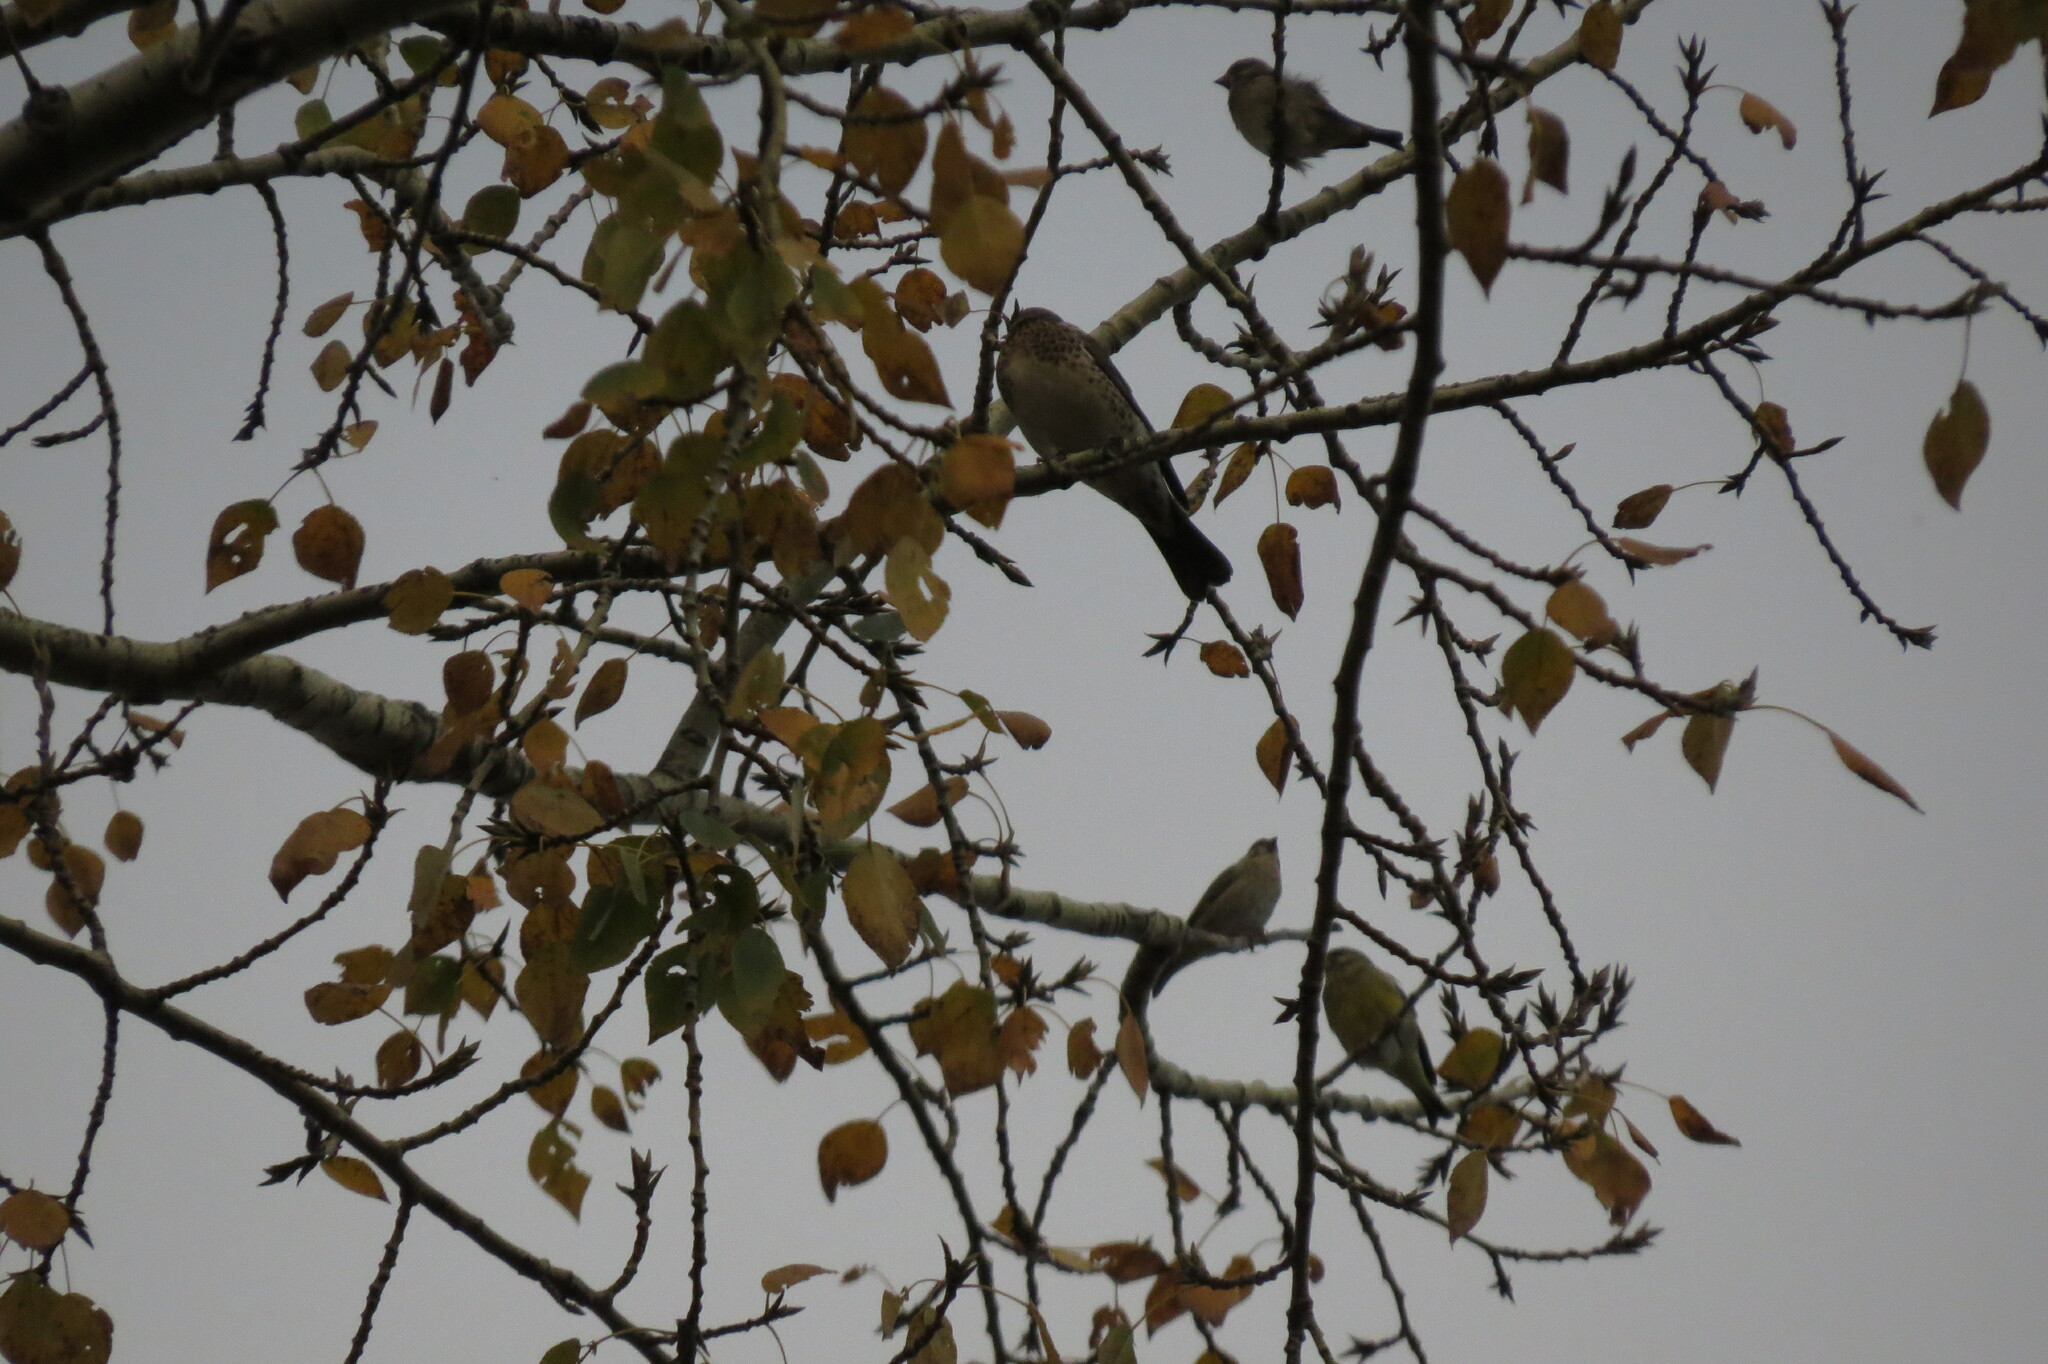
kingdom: Plantae
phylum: Tracheophyta
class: Liliopsida
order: Poales
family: Poaceae
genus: Chloris
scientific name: Chloris chloris
